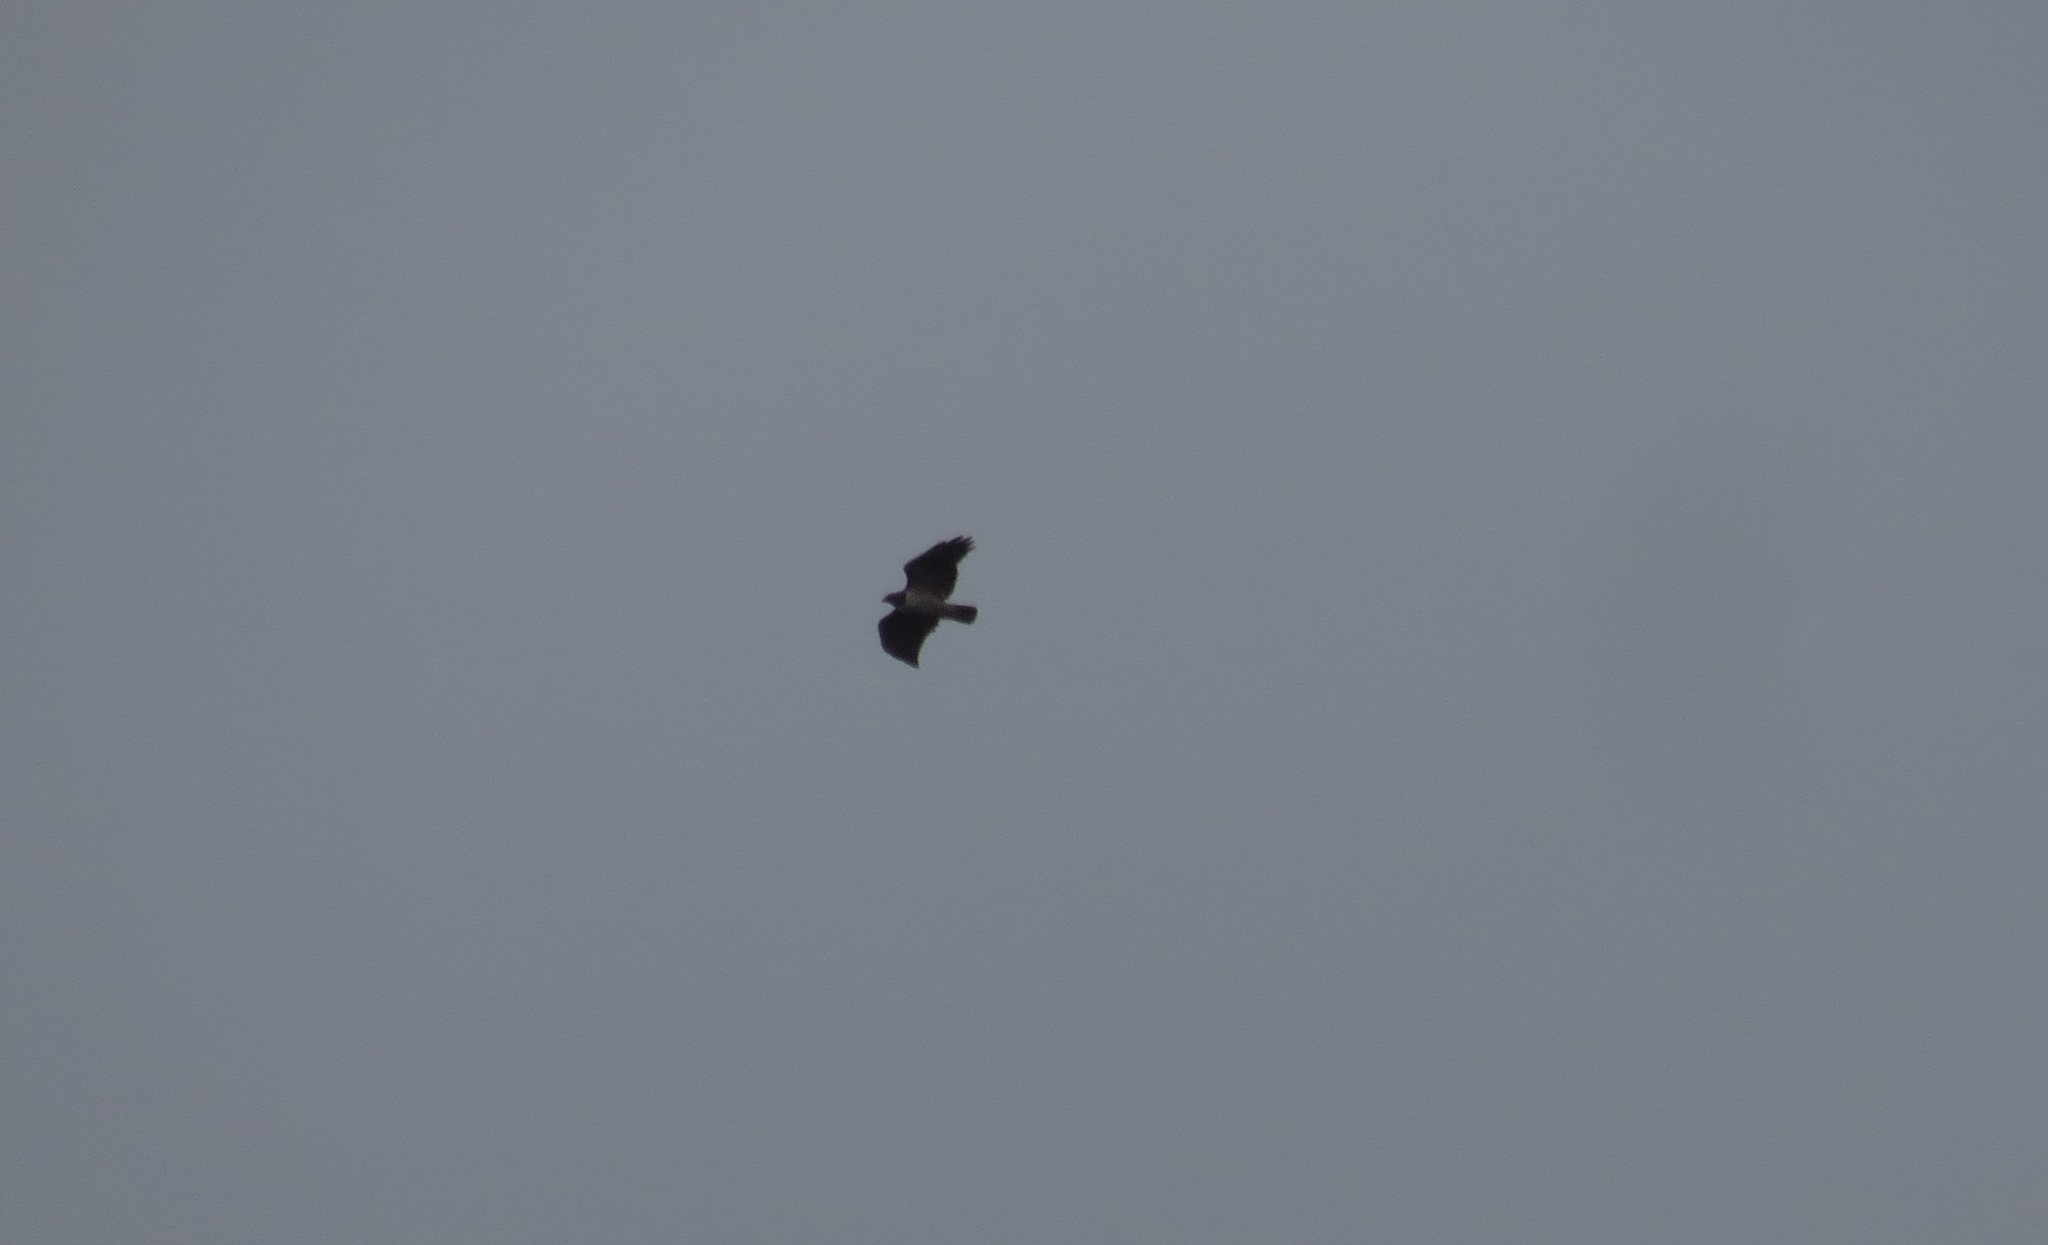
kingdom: Animalia
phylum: Chordata
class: Aves
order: Accipitriformes
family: Accipitridae
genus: Buteo
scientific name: Buteo jamaicensis
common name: Red-tailed hawk
